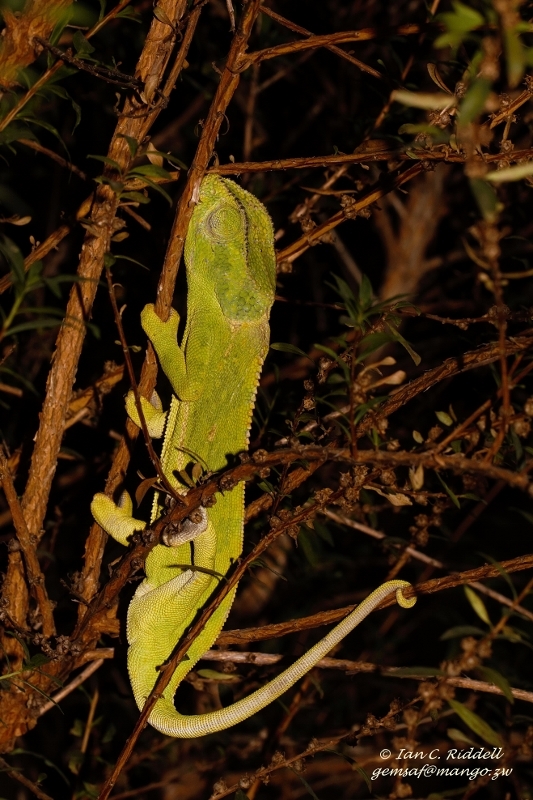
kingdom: Animalia
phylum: Chordata
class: Squamata
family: Chamaeleonidae
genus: Chamaeleo
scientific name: Chamaeleo dilepis
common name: Flapneck chameleon
